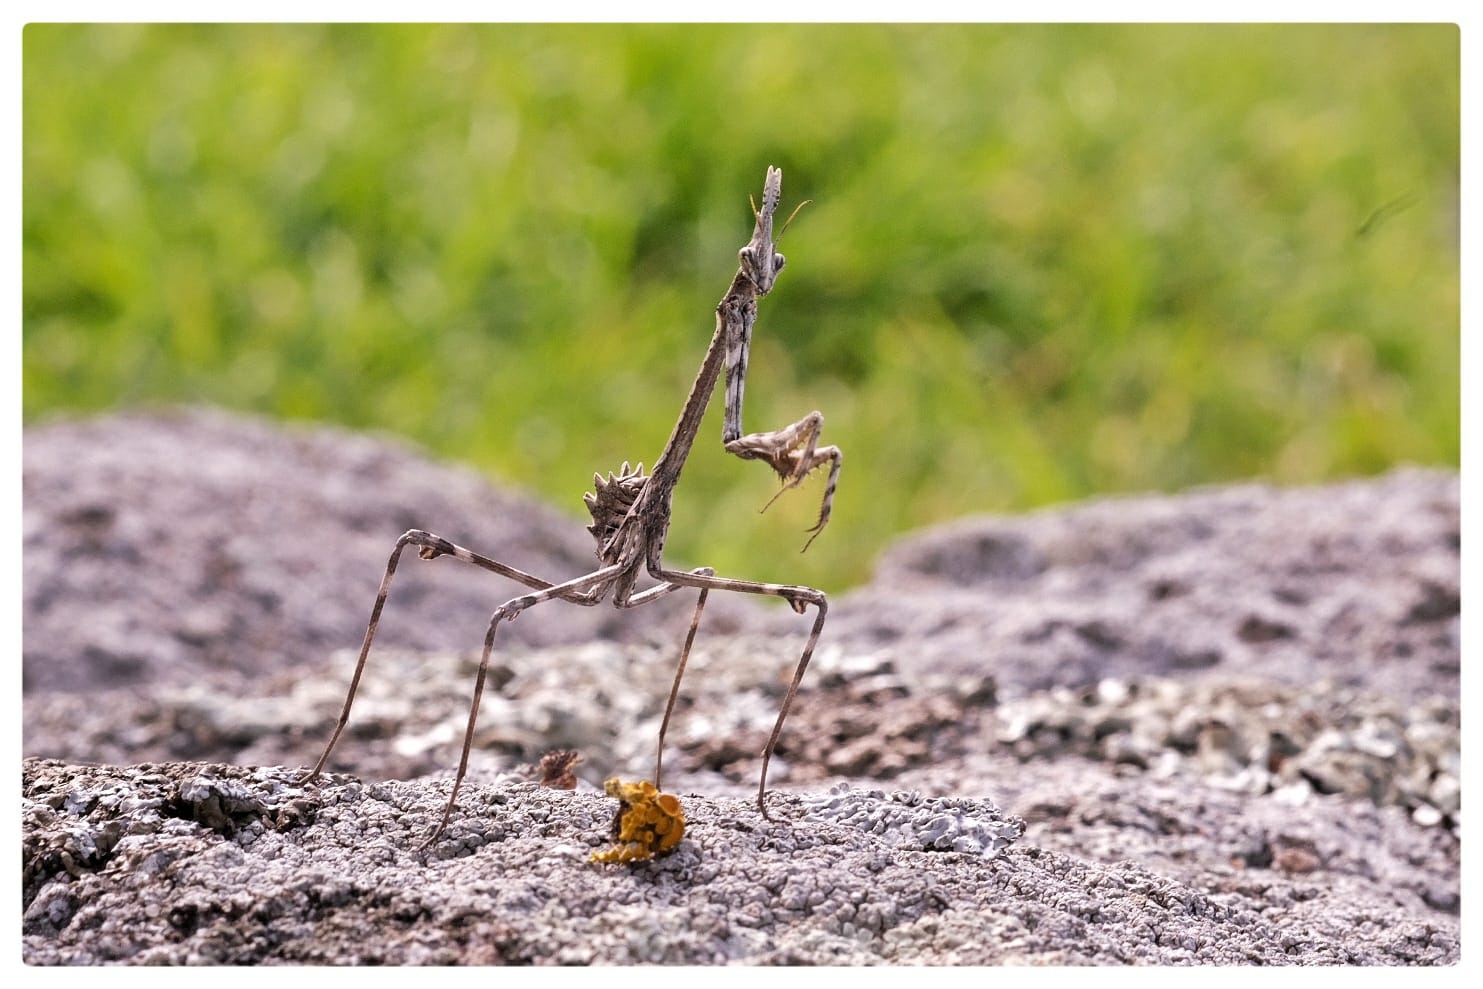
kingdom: Animalia
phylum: Arthropoda
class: Insecta
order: Mantodea
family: Empusidae
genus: Empusa
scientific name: Empusa pennata
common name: Conehead mantis
